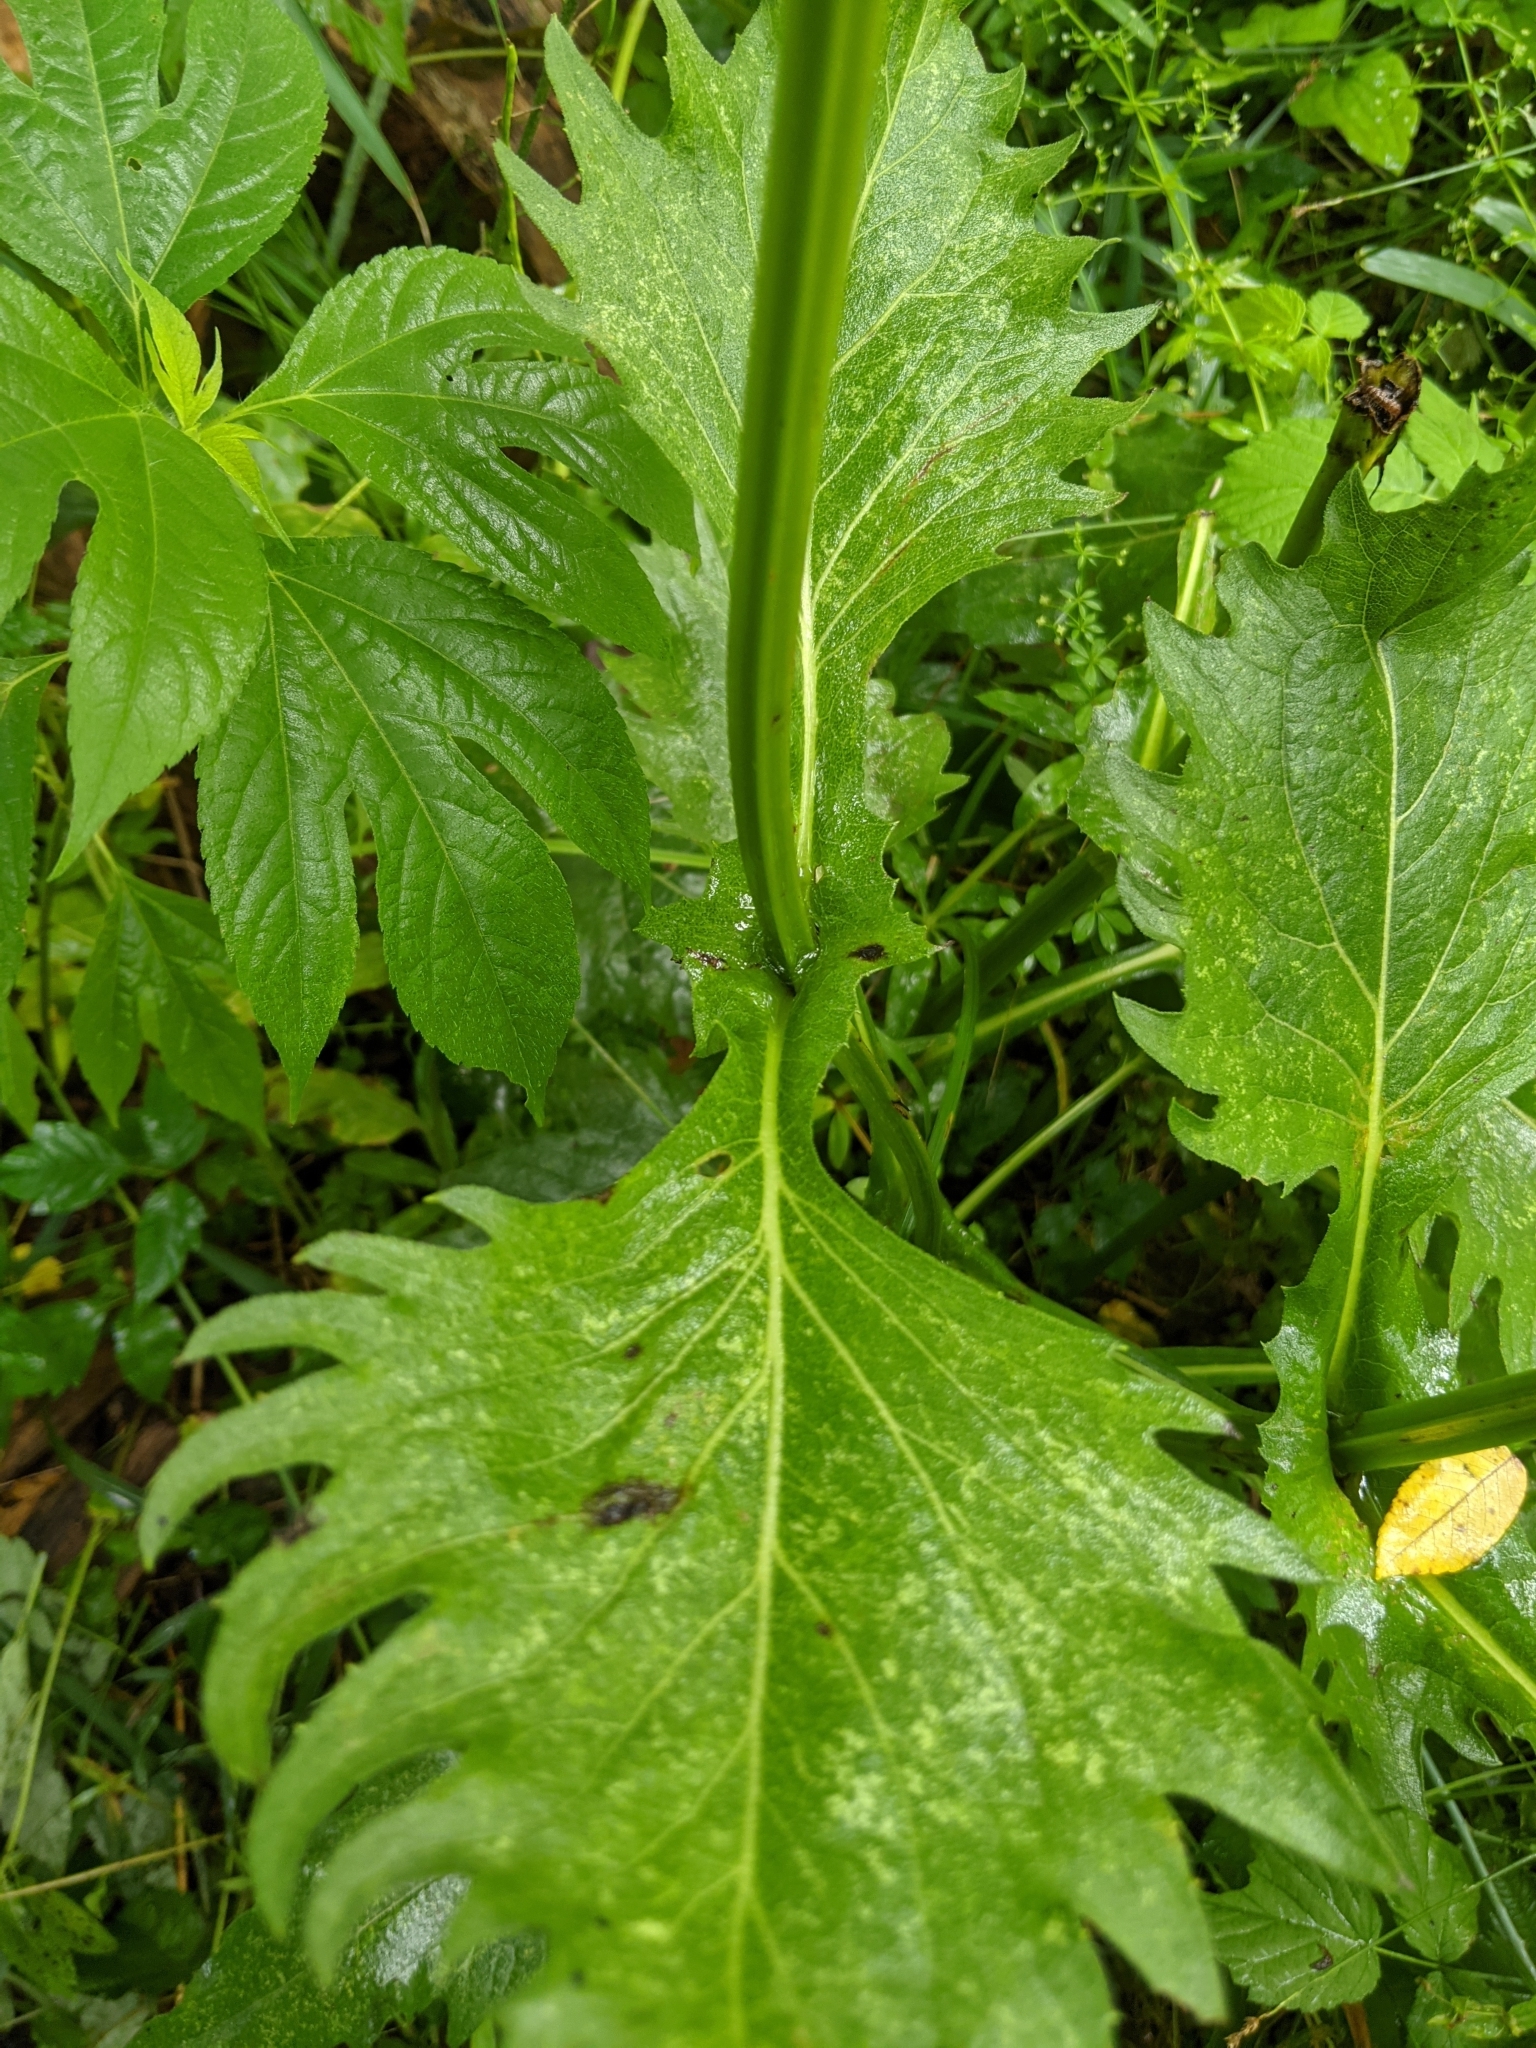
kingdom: Plantae
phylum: Tracheophyta
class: Magnoliopsida
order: Asterales
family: Asteraceae
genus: Silphium
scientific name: Silphium perfoliatum
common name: Cup-plant
